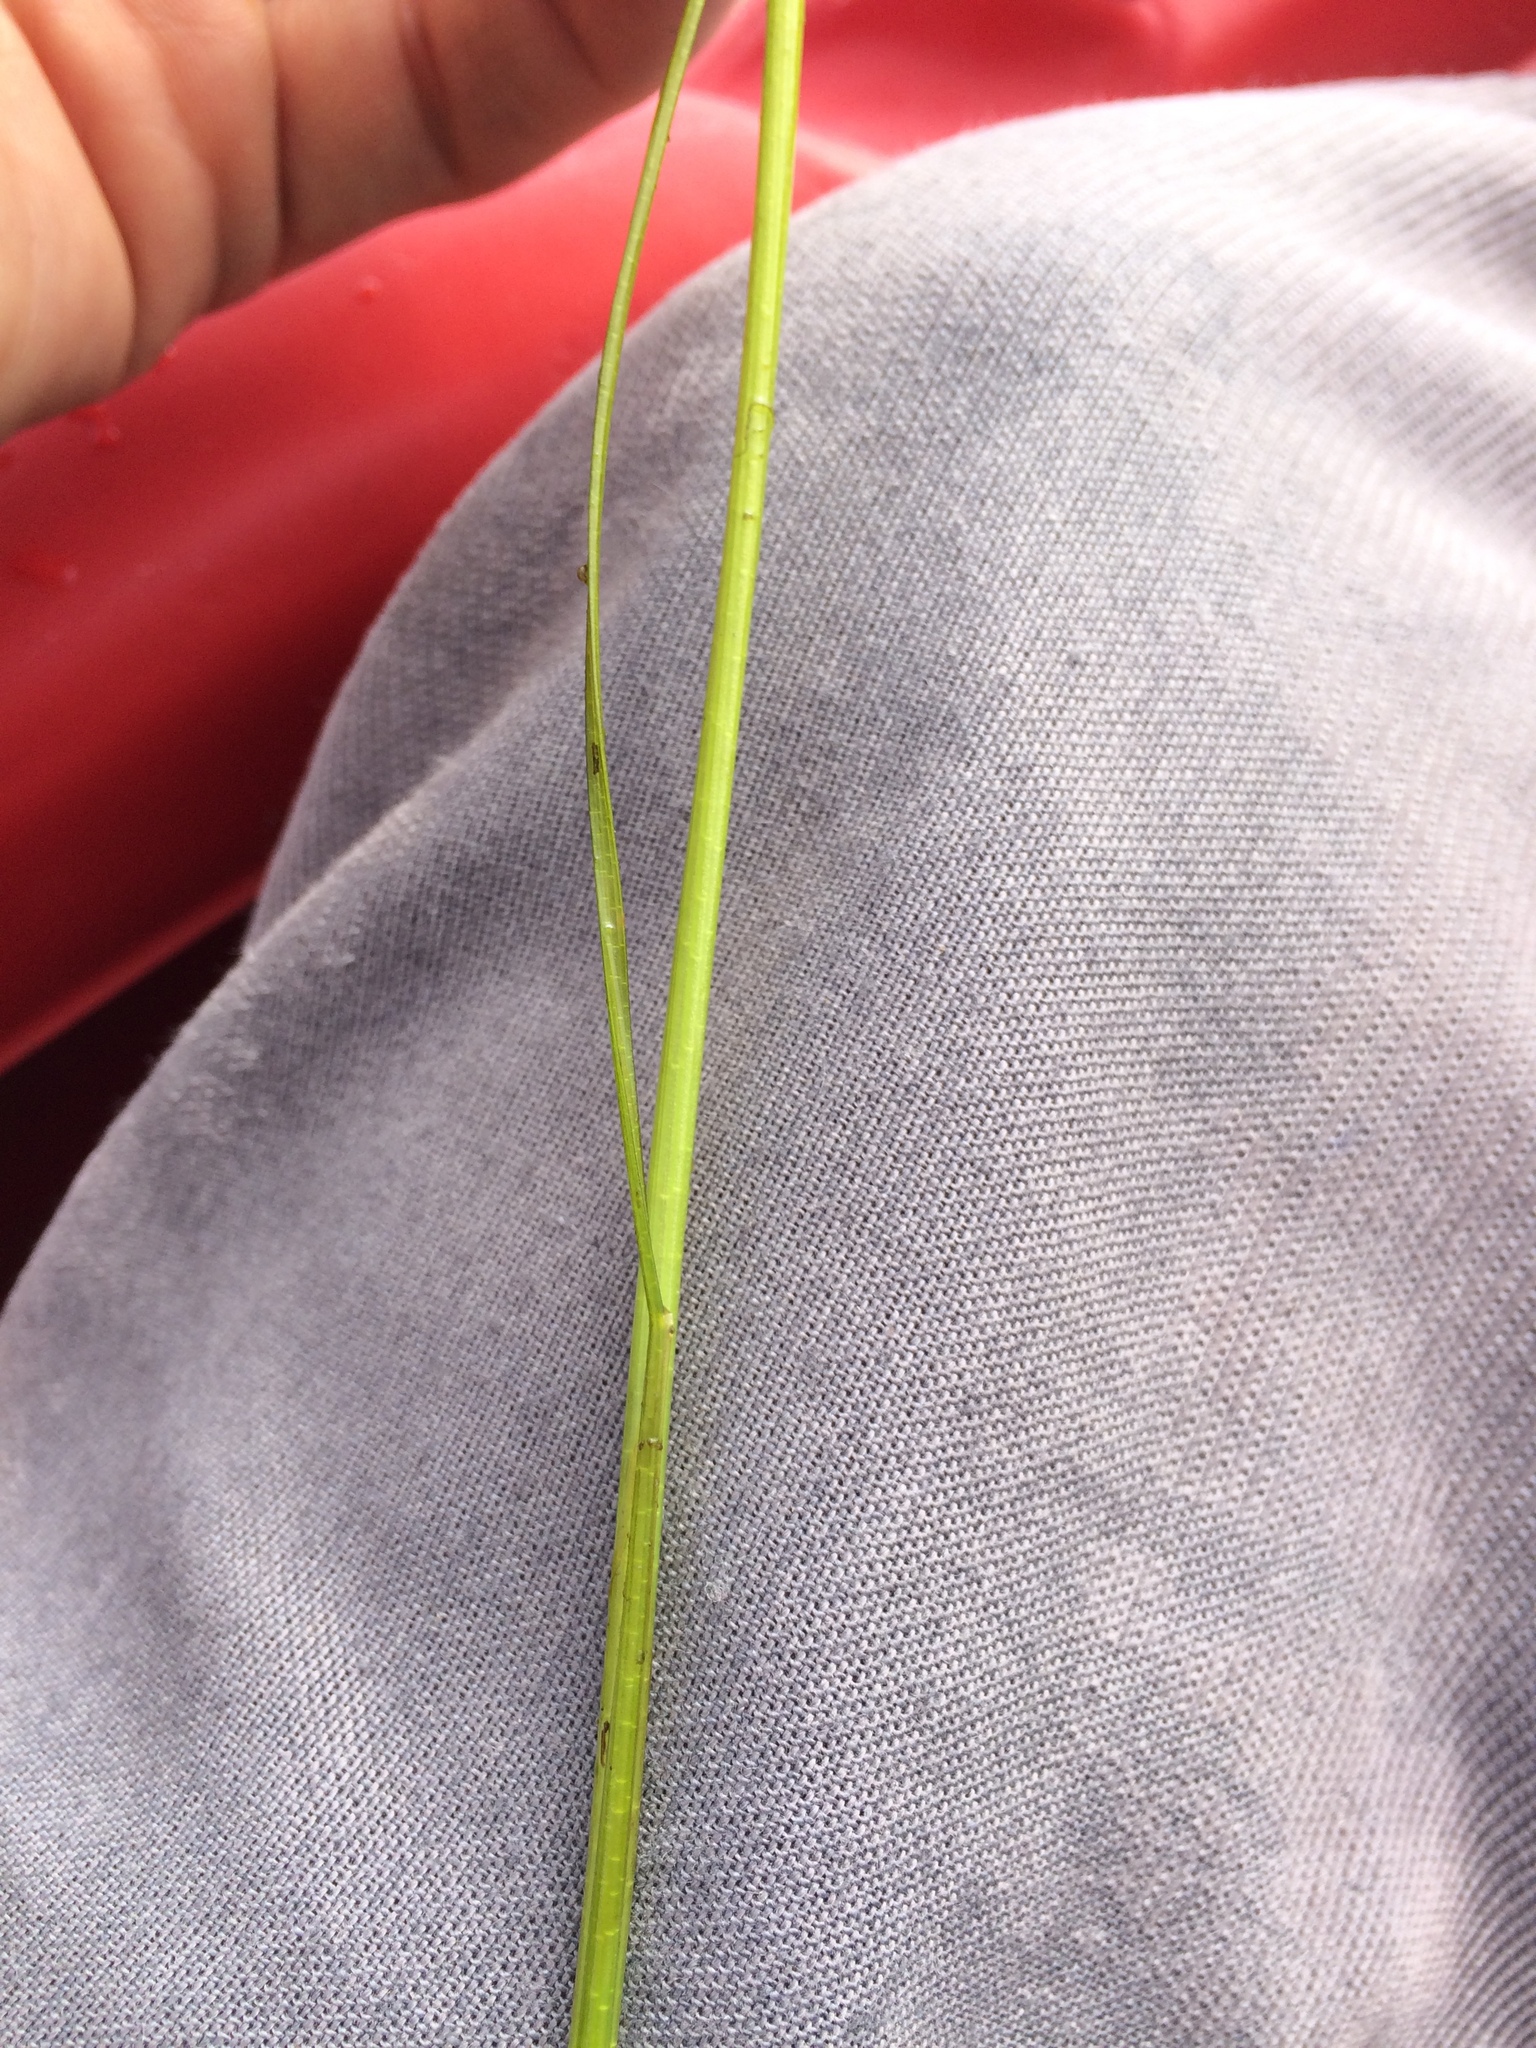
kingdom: Plantae
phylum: Tracheophyta
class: Liliopsida
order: Poales
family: Cyperaceae
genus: Schoenoplectus
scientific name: Schoenoplectus subterminalis
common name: Swaying bulrush
